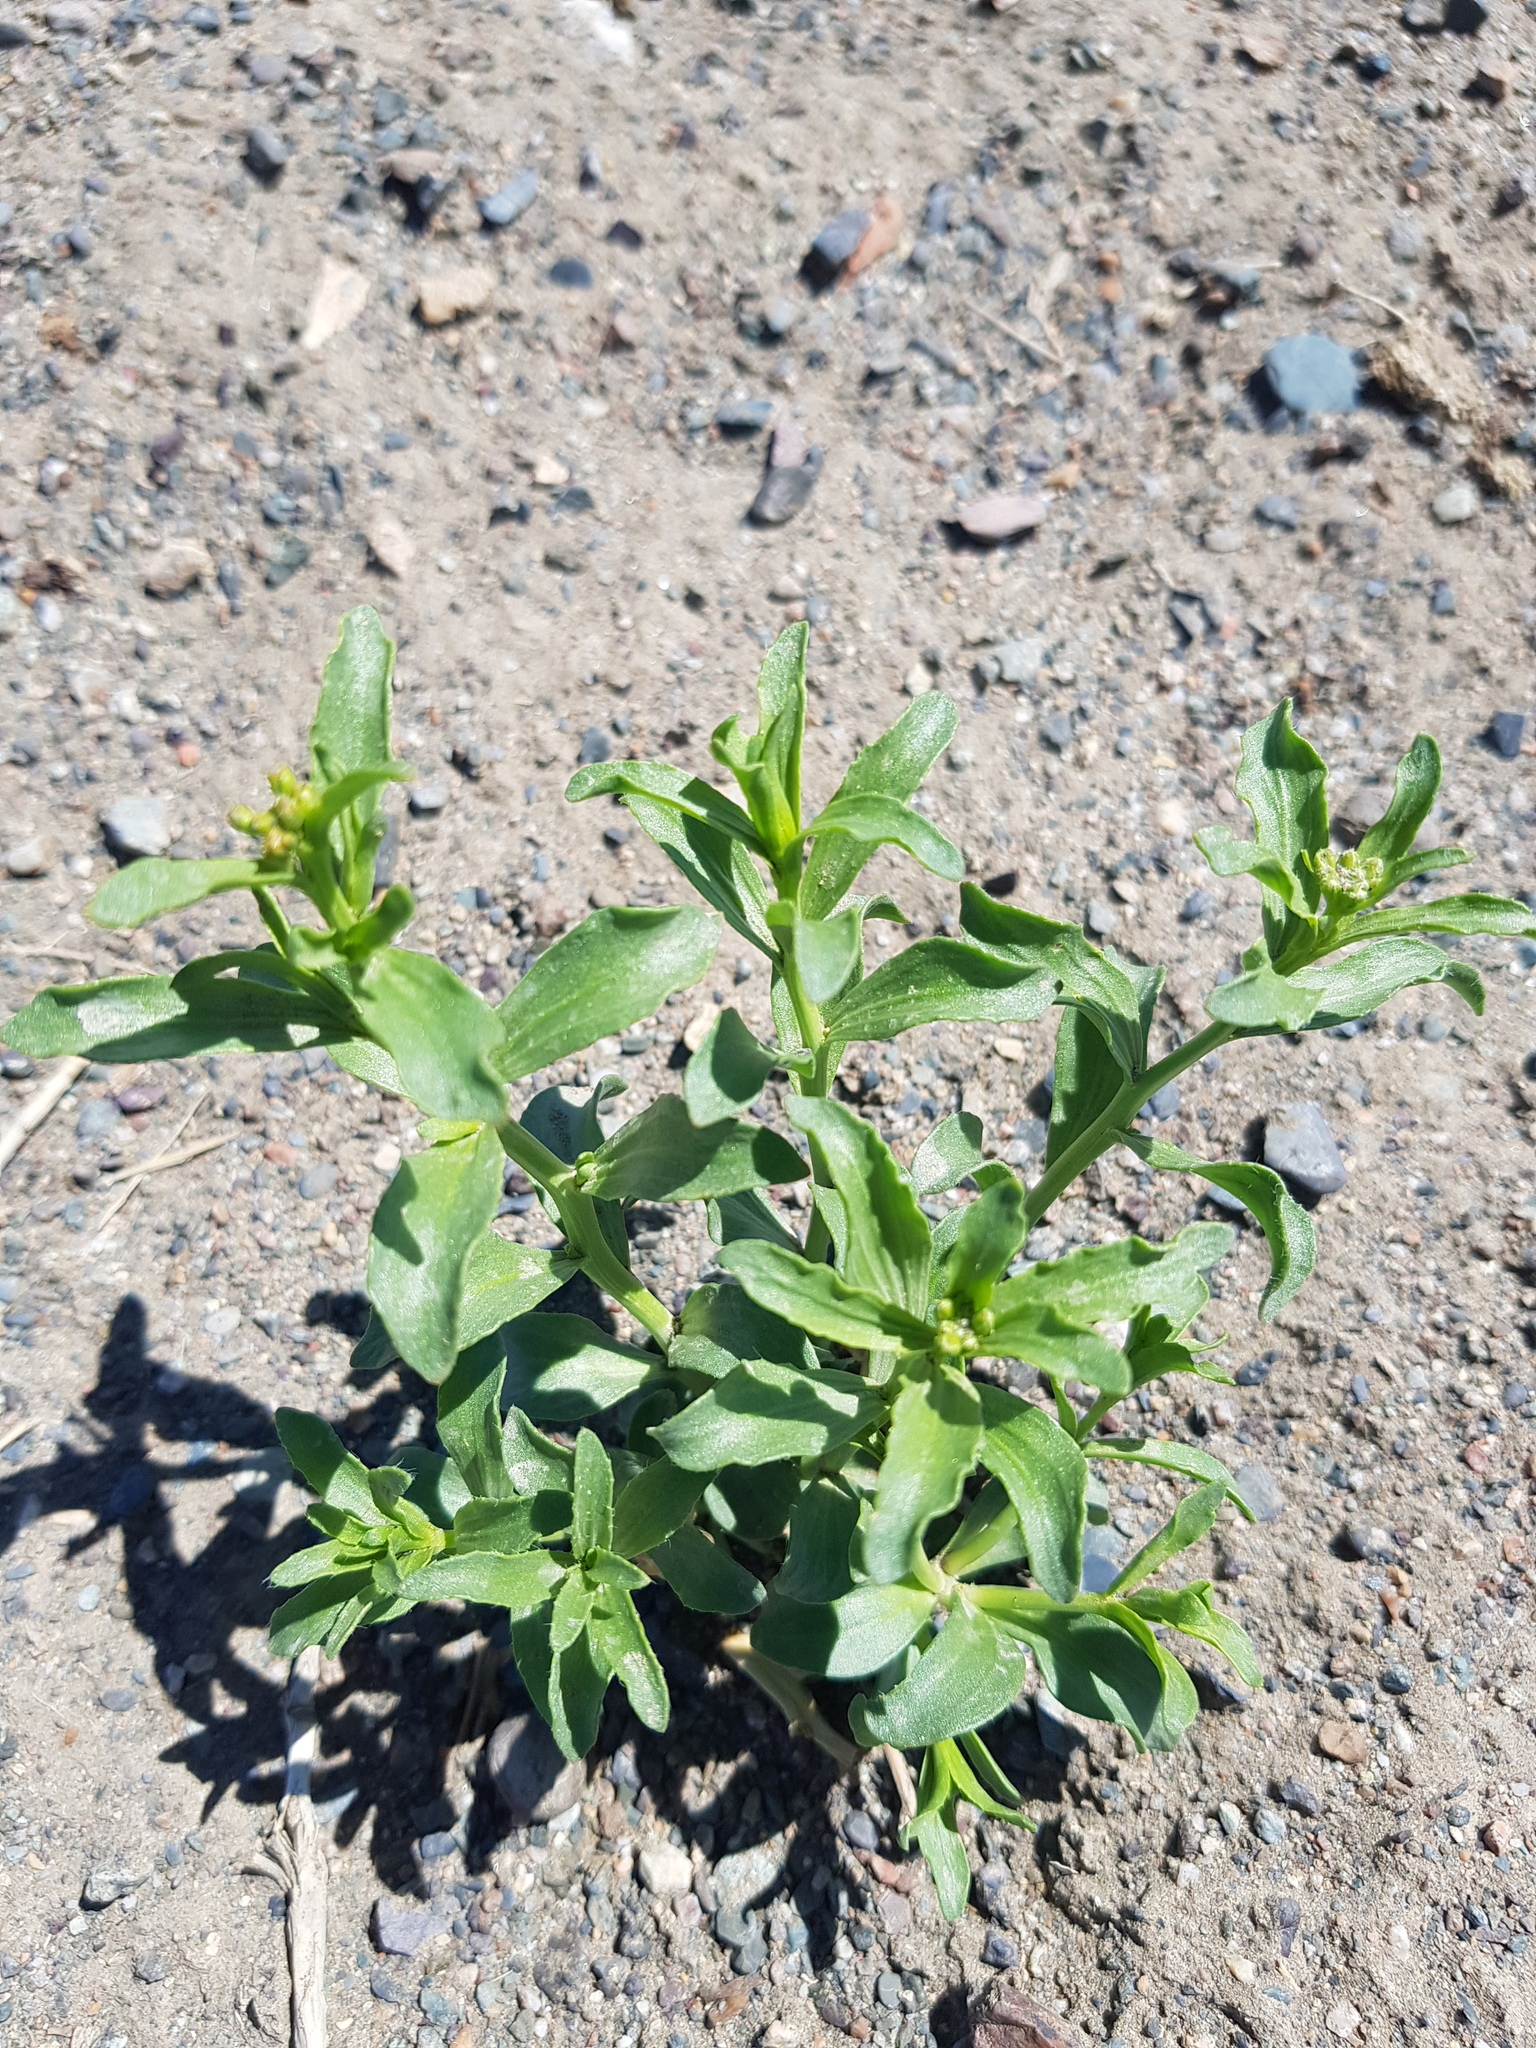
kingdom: Plantae
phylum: Tracheophyta
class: Magnoliopsida
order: Brassicales
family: Brassicaceae
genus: Lepidium
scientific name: Lepidium latifolium
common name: Dittander
